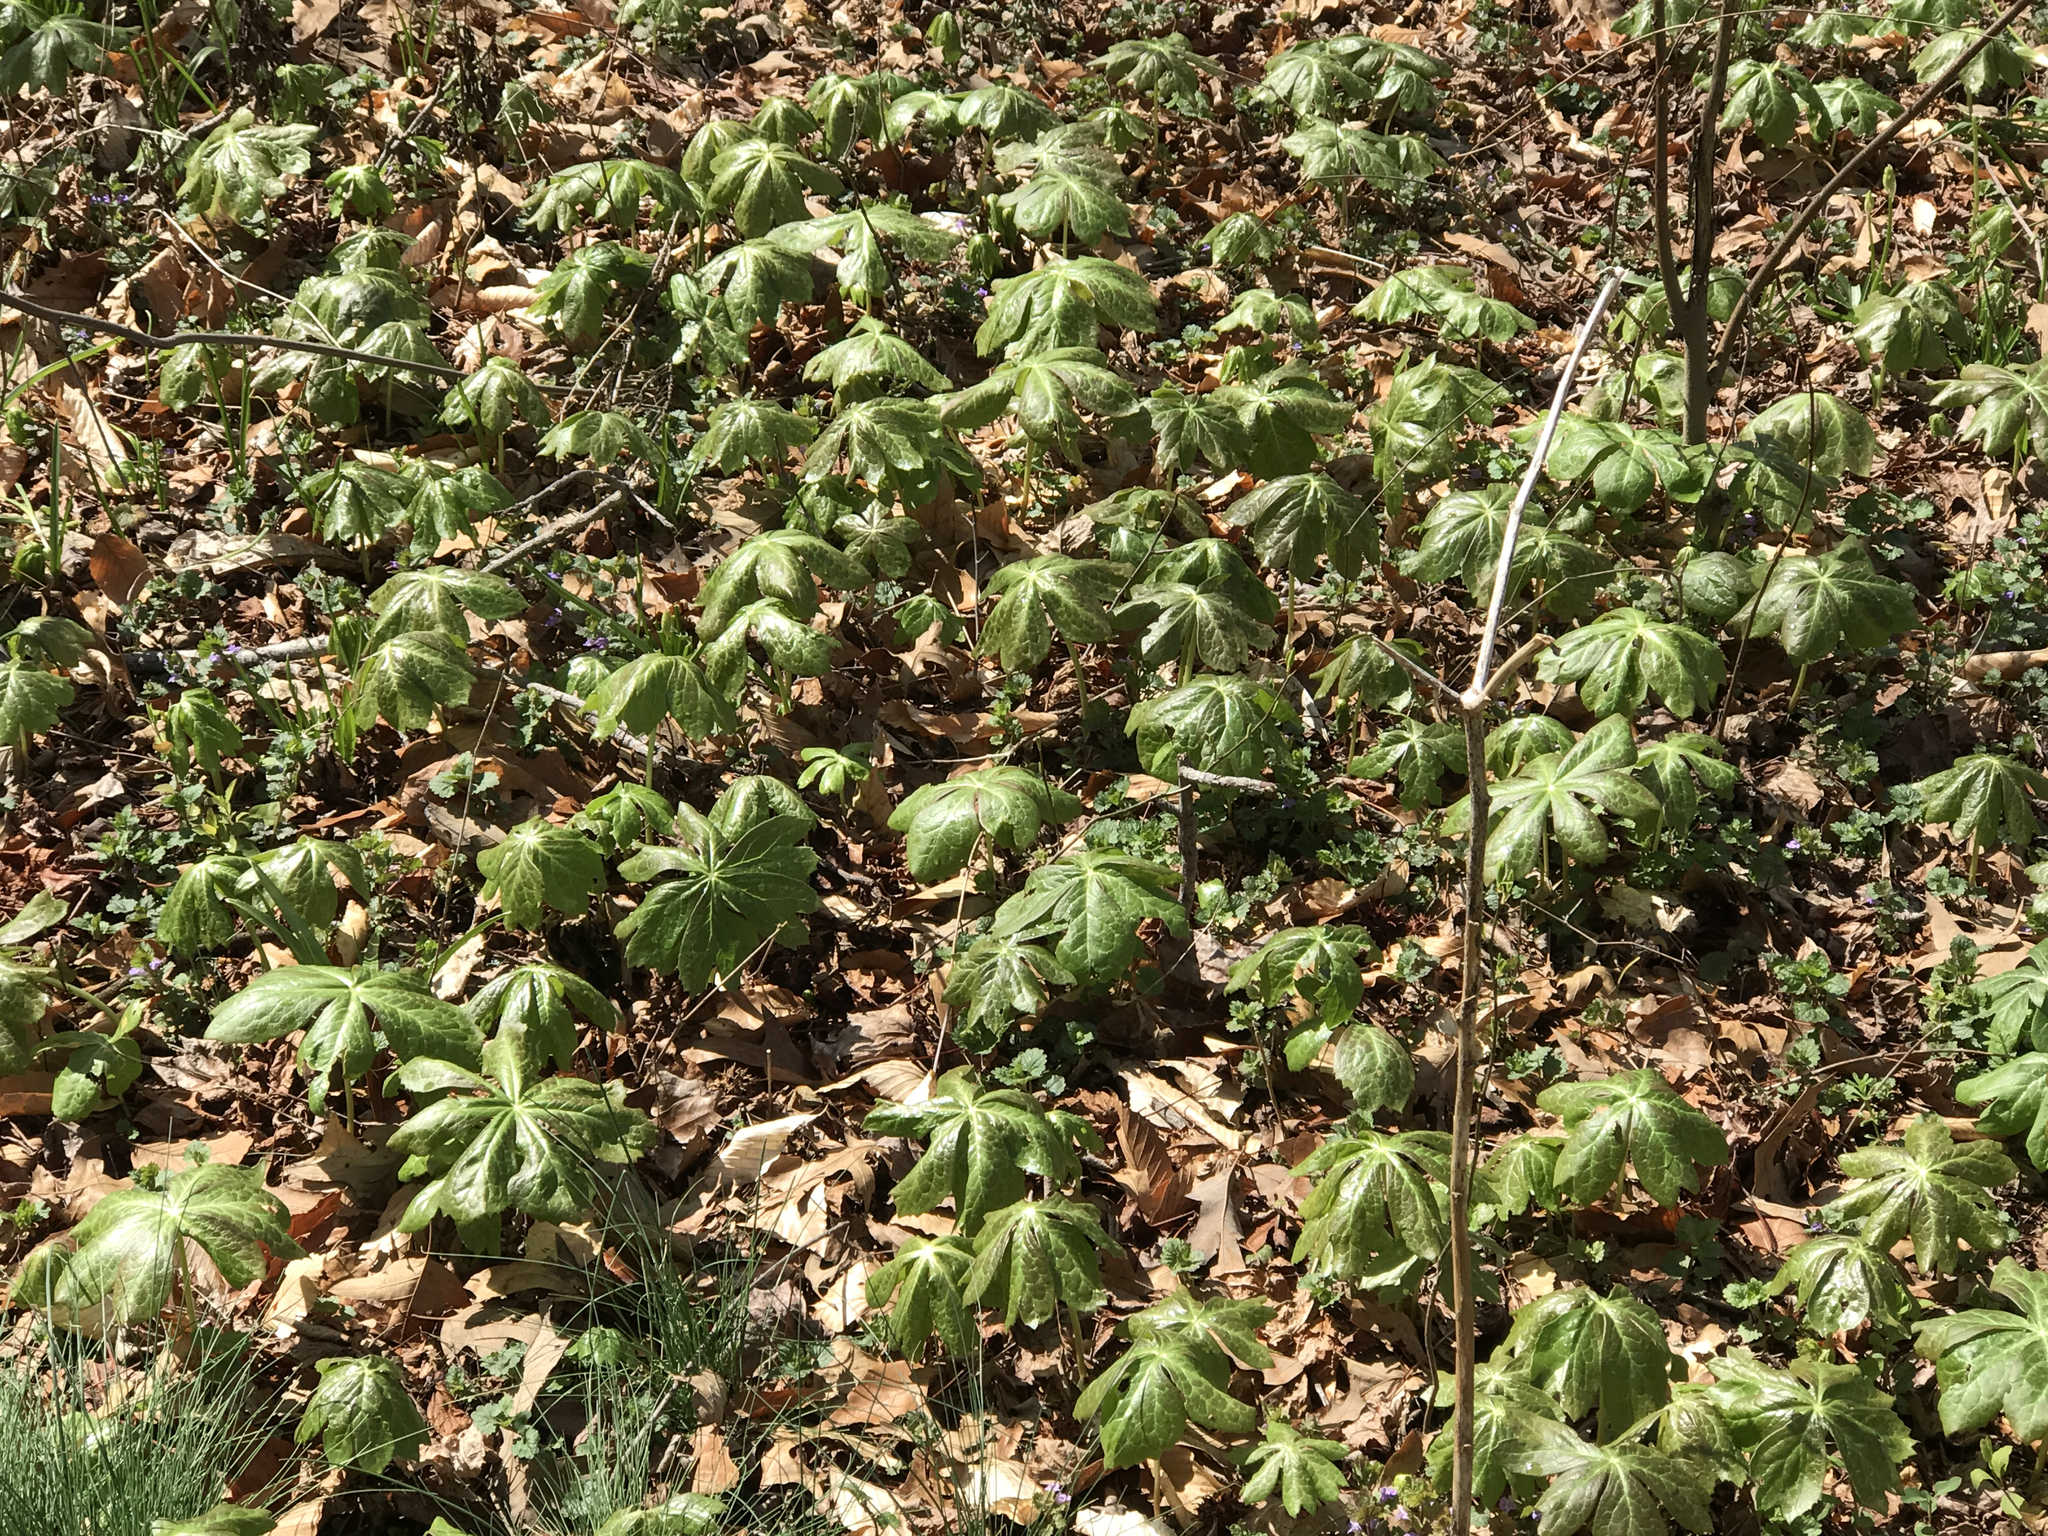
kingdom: Plantae
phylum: Tracheophyta
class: Magnoliopsida
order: Ranunculales
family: Berberidaceae
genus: Podophyllum
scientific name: Podophyllum peltatum
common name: Wild mandrake
